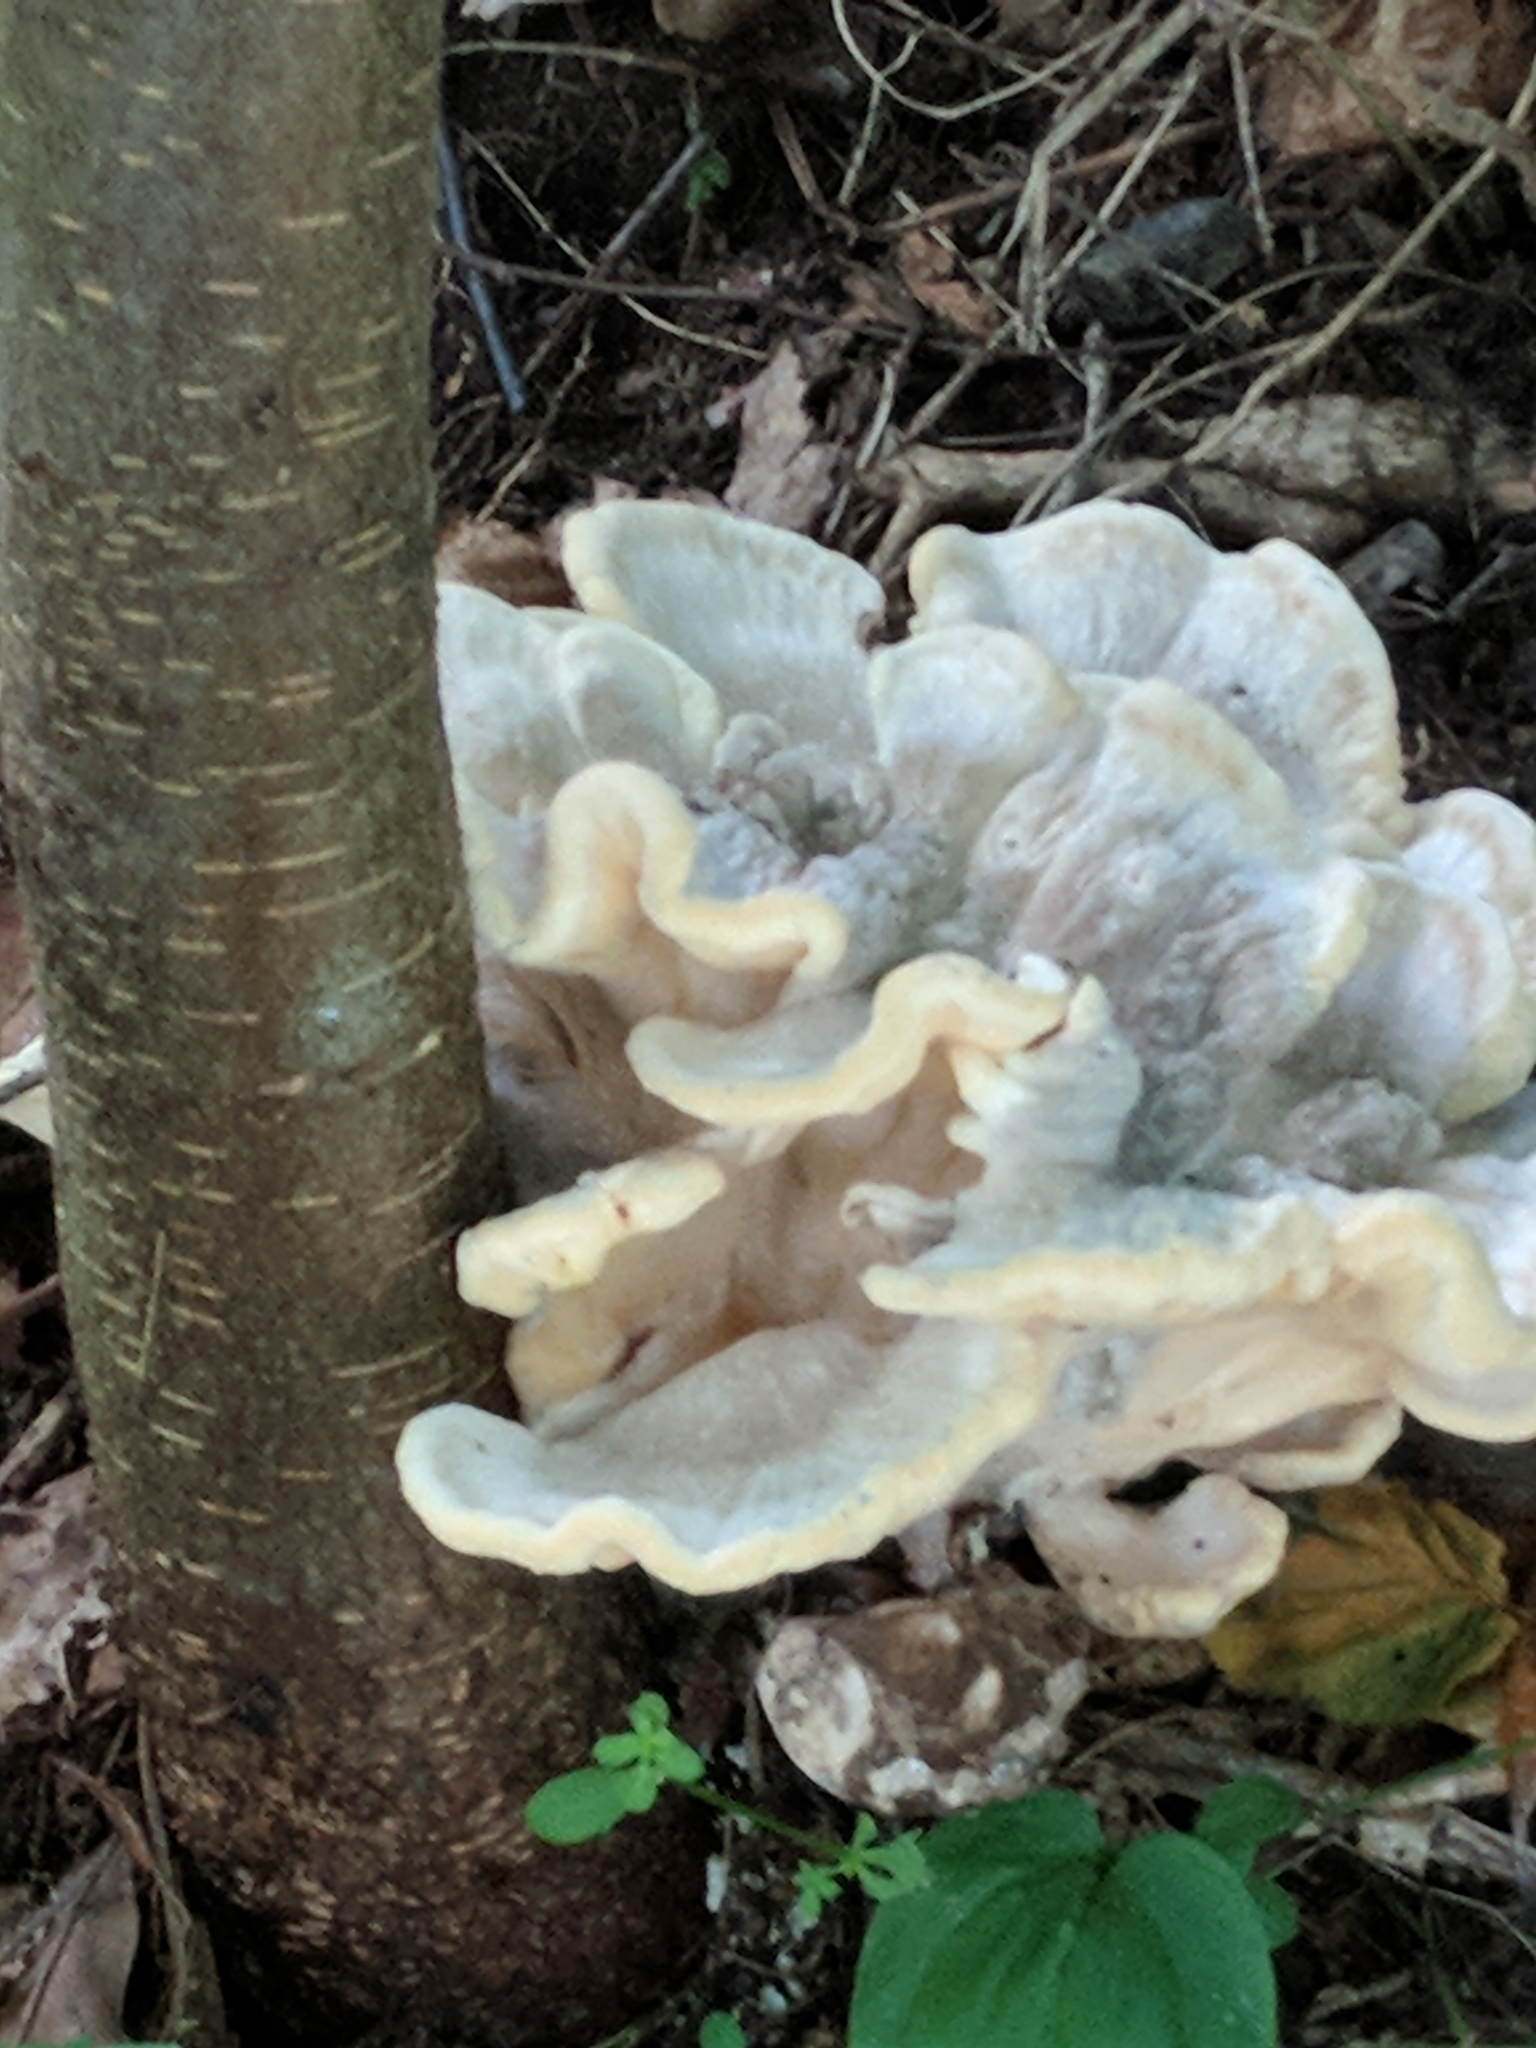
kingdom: Fungi
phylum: Basidiomycota
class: Agaricomycetes
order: Polyporales
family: Meripilaceae
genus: Meripilus
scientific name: Meripilus sumstinei
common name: Black-staining polypore
